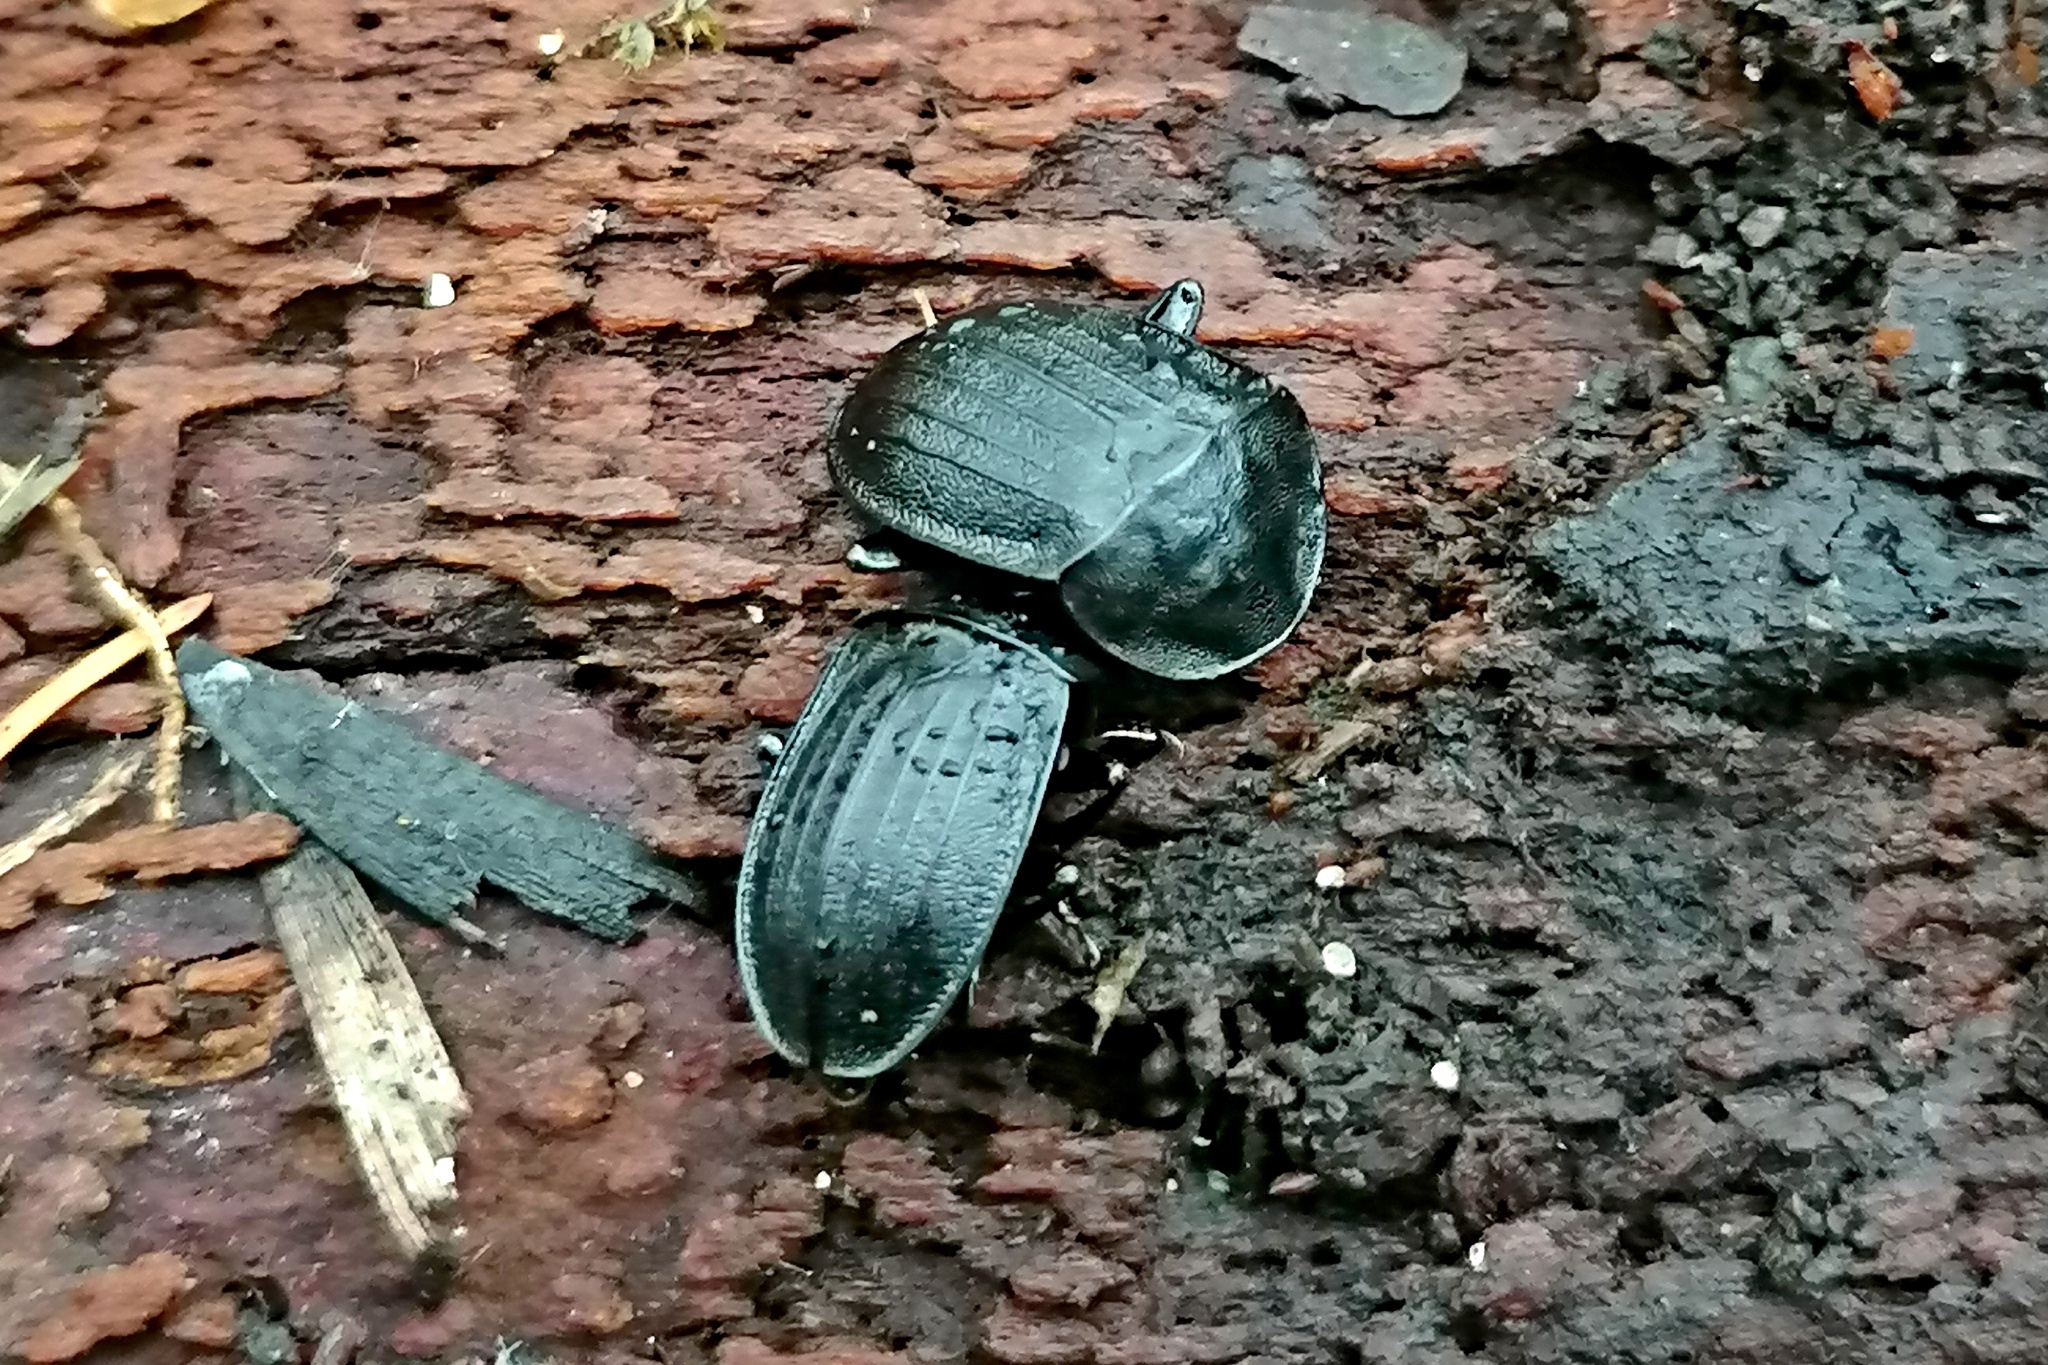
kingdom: Animalia
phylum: Arthropoda
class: Insecta
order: Coleoptera
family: Staphylinidae
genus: Silpha
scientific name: Silpha atrata
